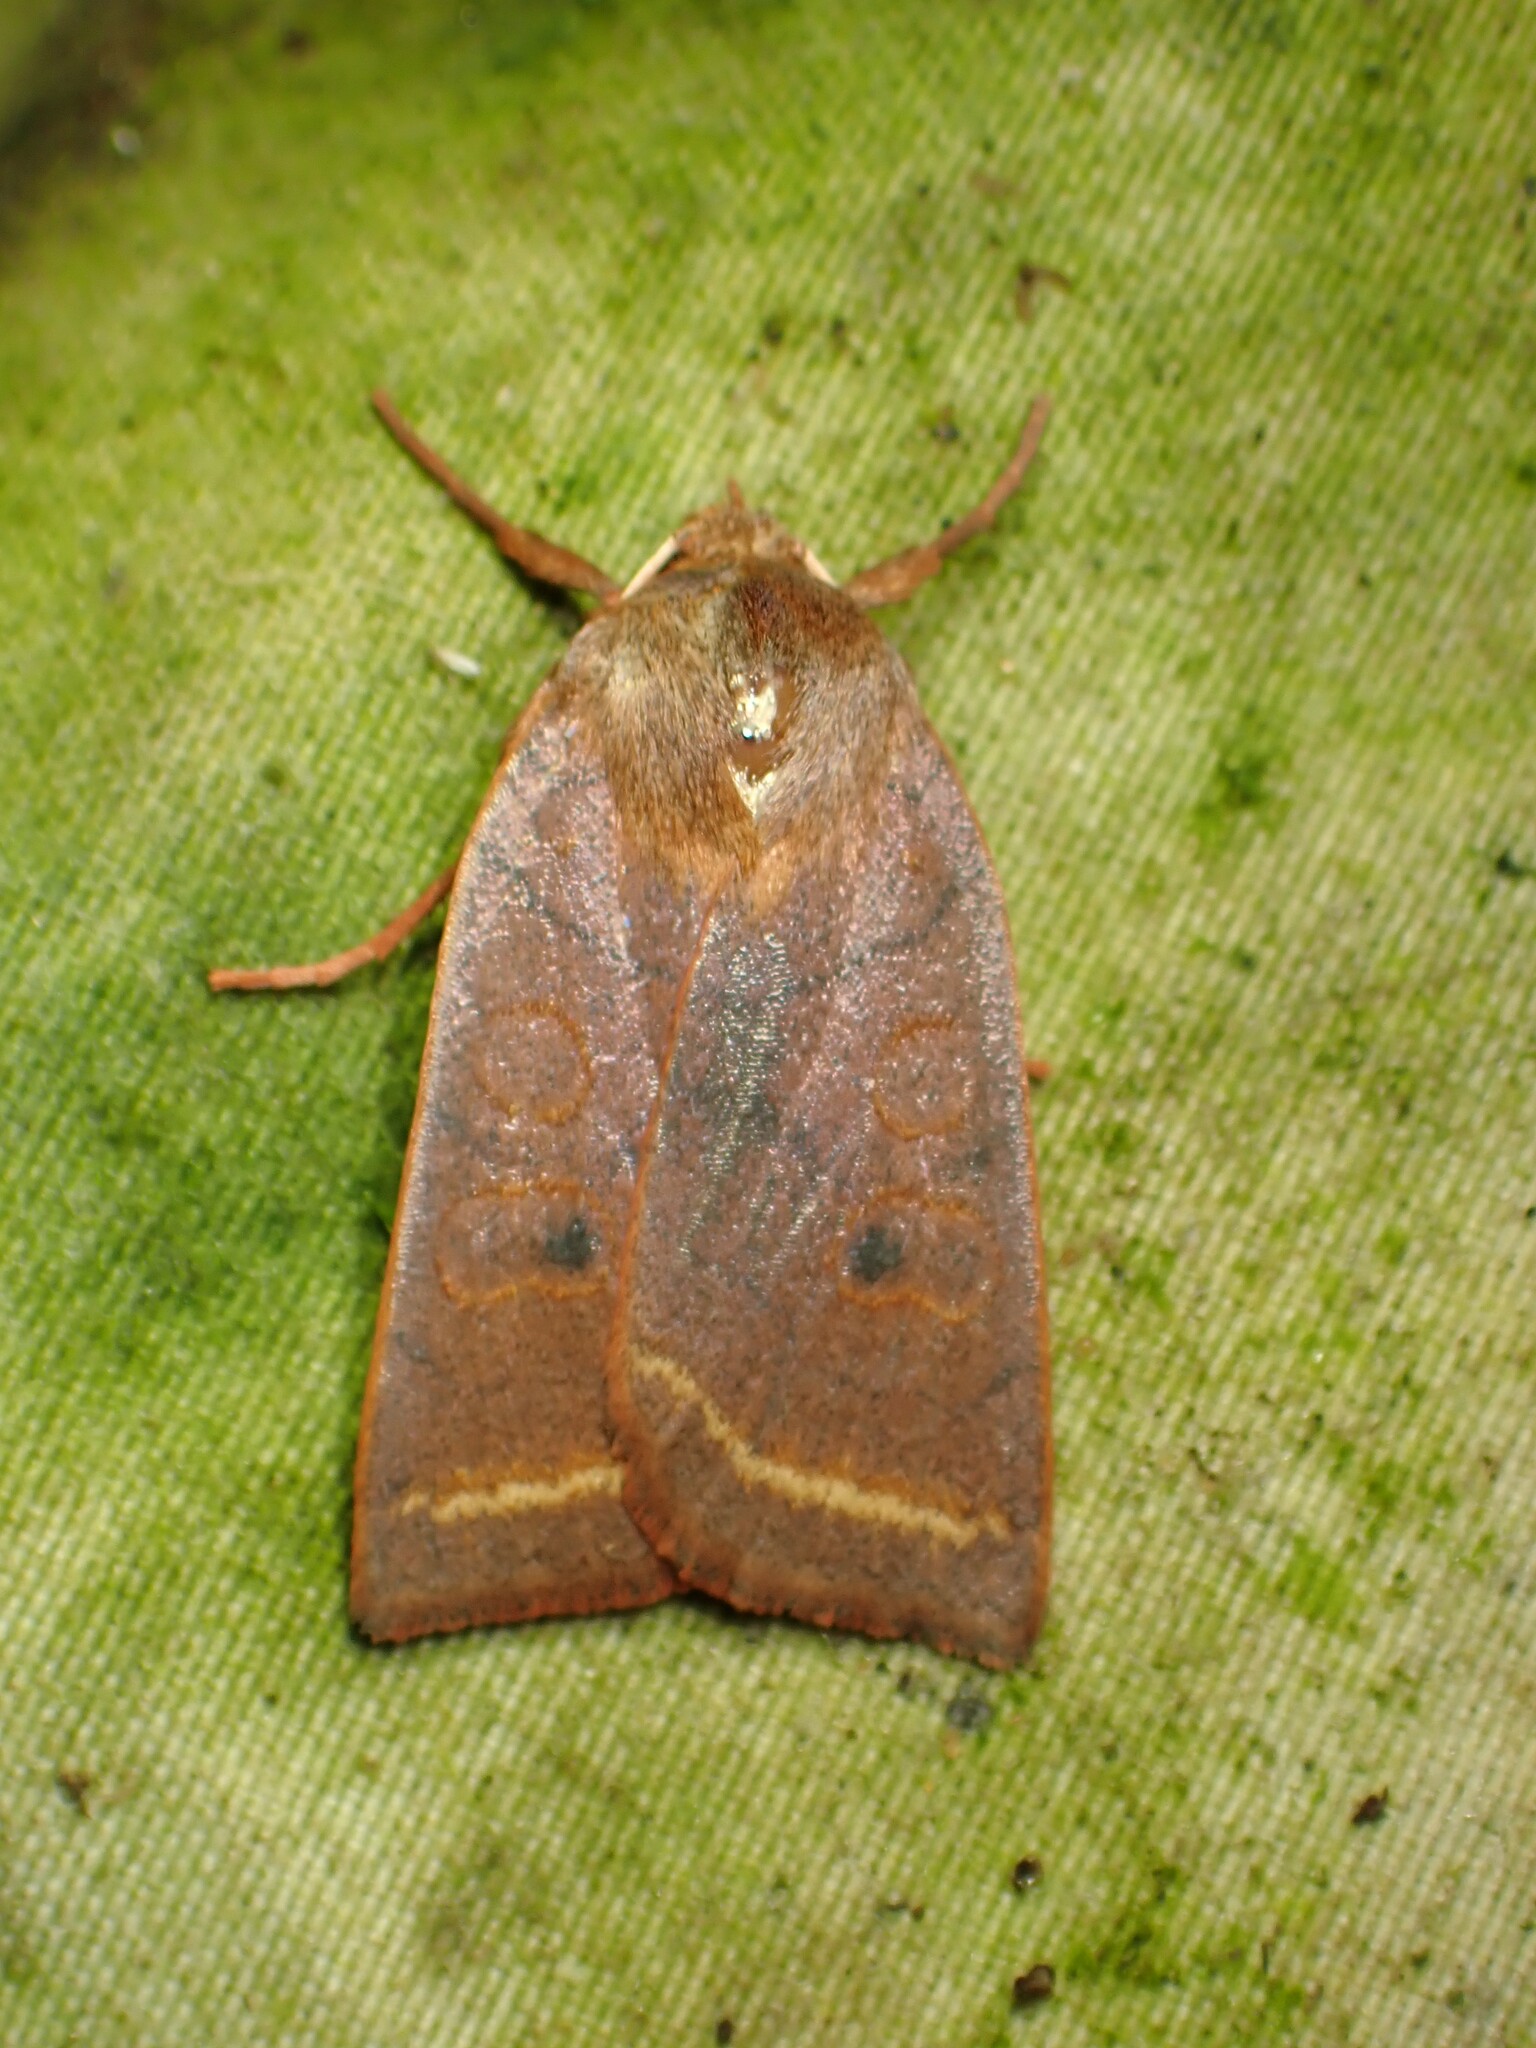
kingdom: Animalia
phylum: Arthropoda
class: Insecta
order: Lepidoptera
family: Noctuidae
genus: Epiglaea
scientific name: Epiglaea apiata
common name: Pointed sallow
